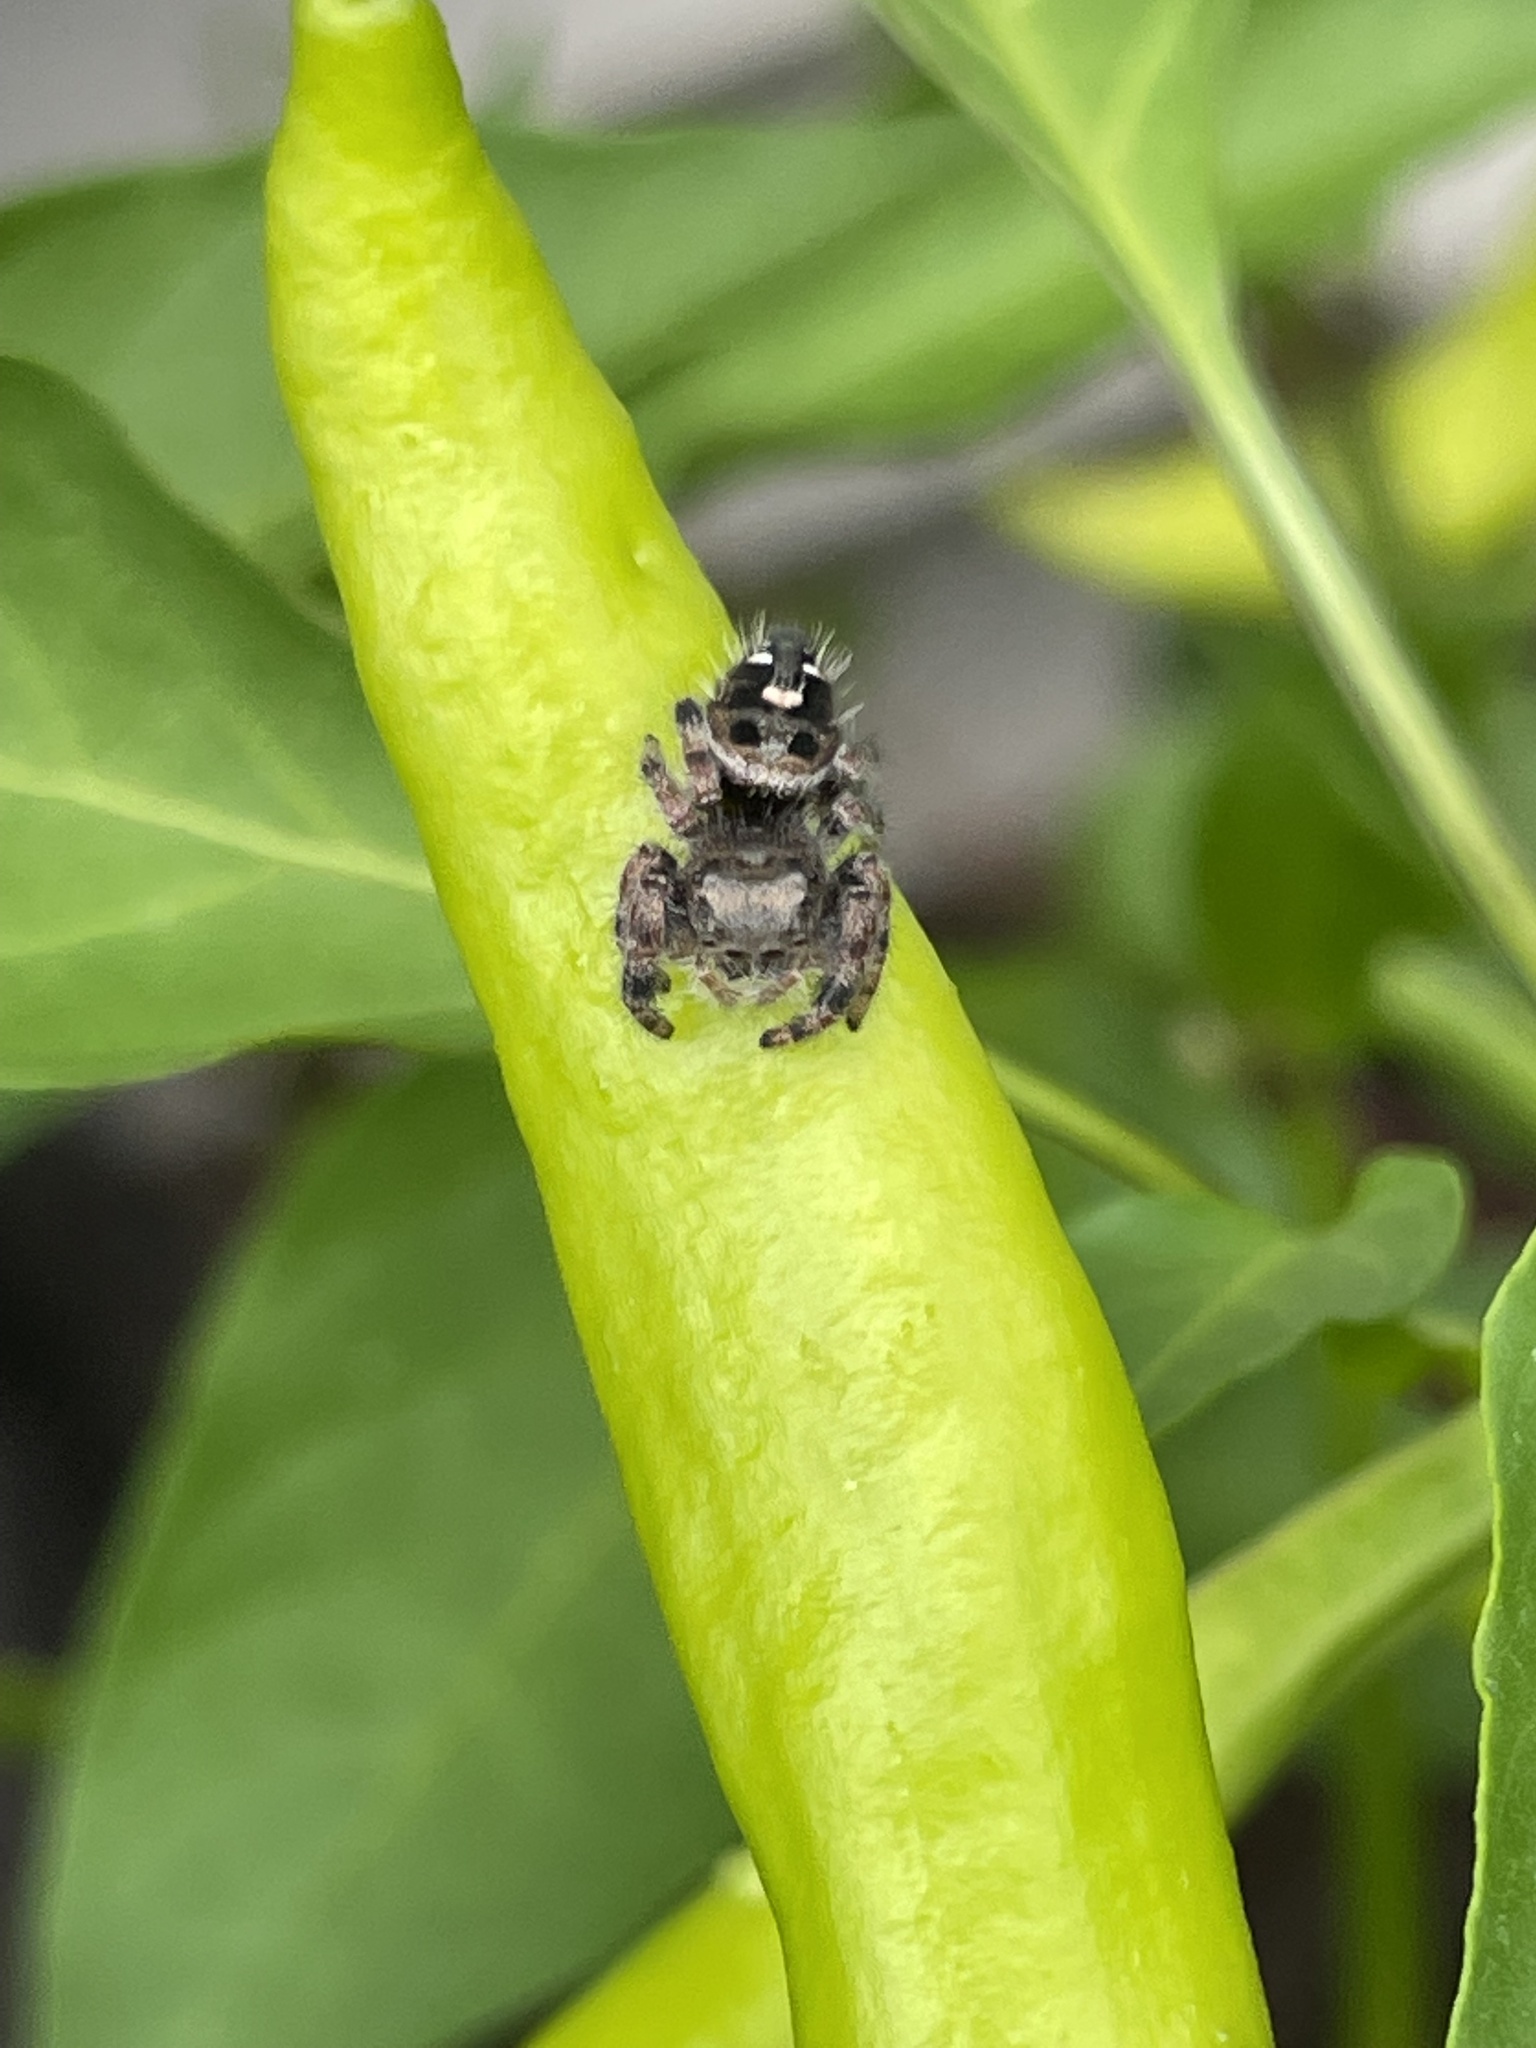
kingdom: Animalia
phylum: Arthropoda
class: Arachnida
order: Araneae
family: Salticidae
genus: Phidippus
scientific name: Phidippus audax
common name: Bold jumper
